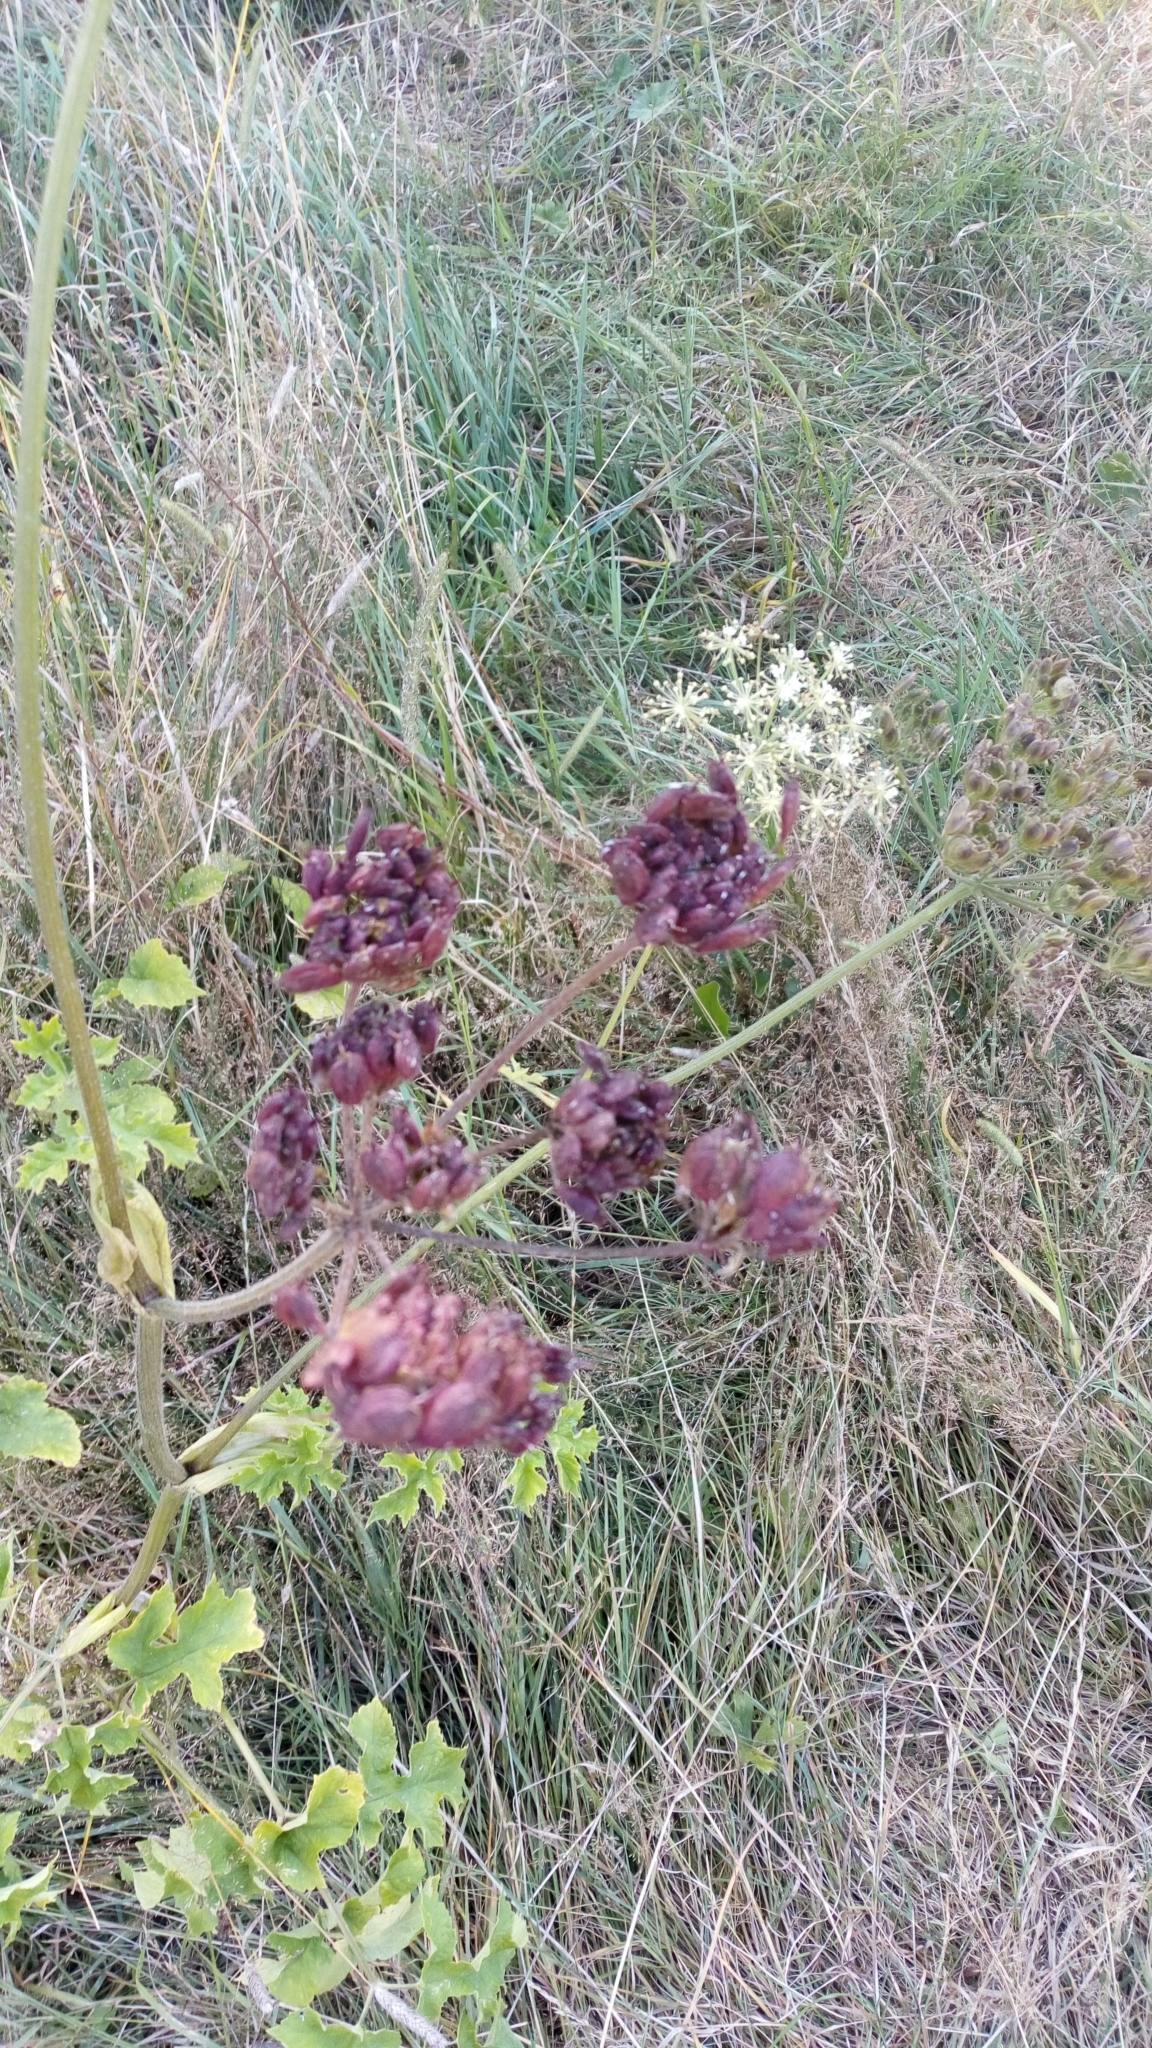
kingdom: Plantae
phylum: Tracheophyta
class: Magnoliopsida
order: Apiales
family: Apiaceae
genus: Heracleum
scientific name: Heracleum sphondylium
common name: Hogweed
